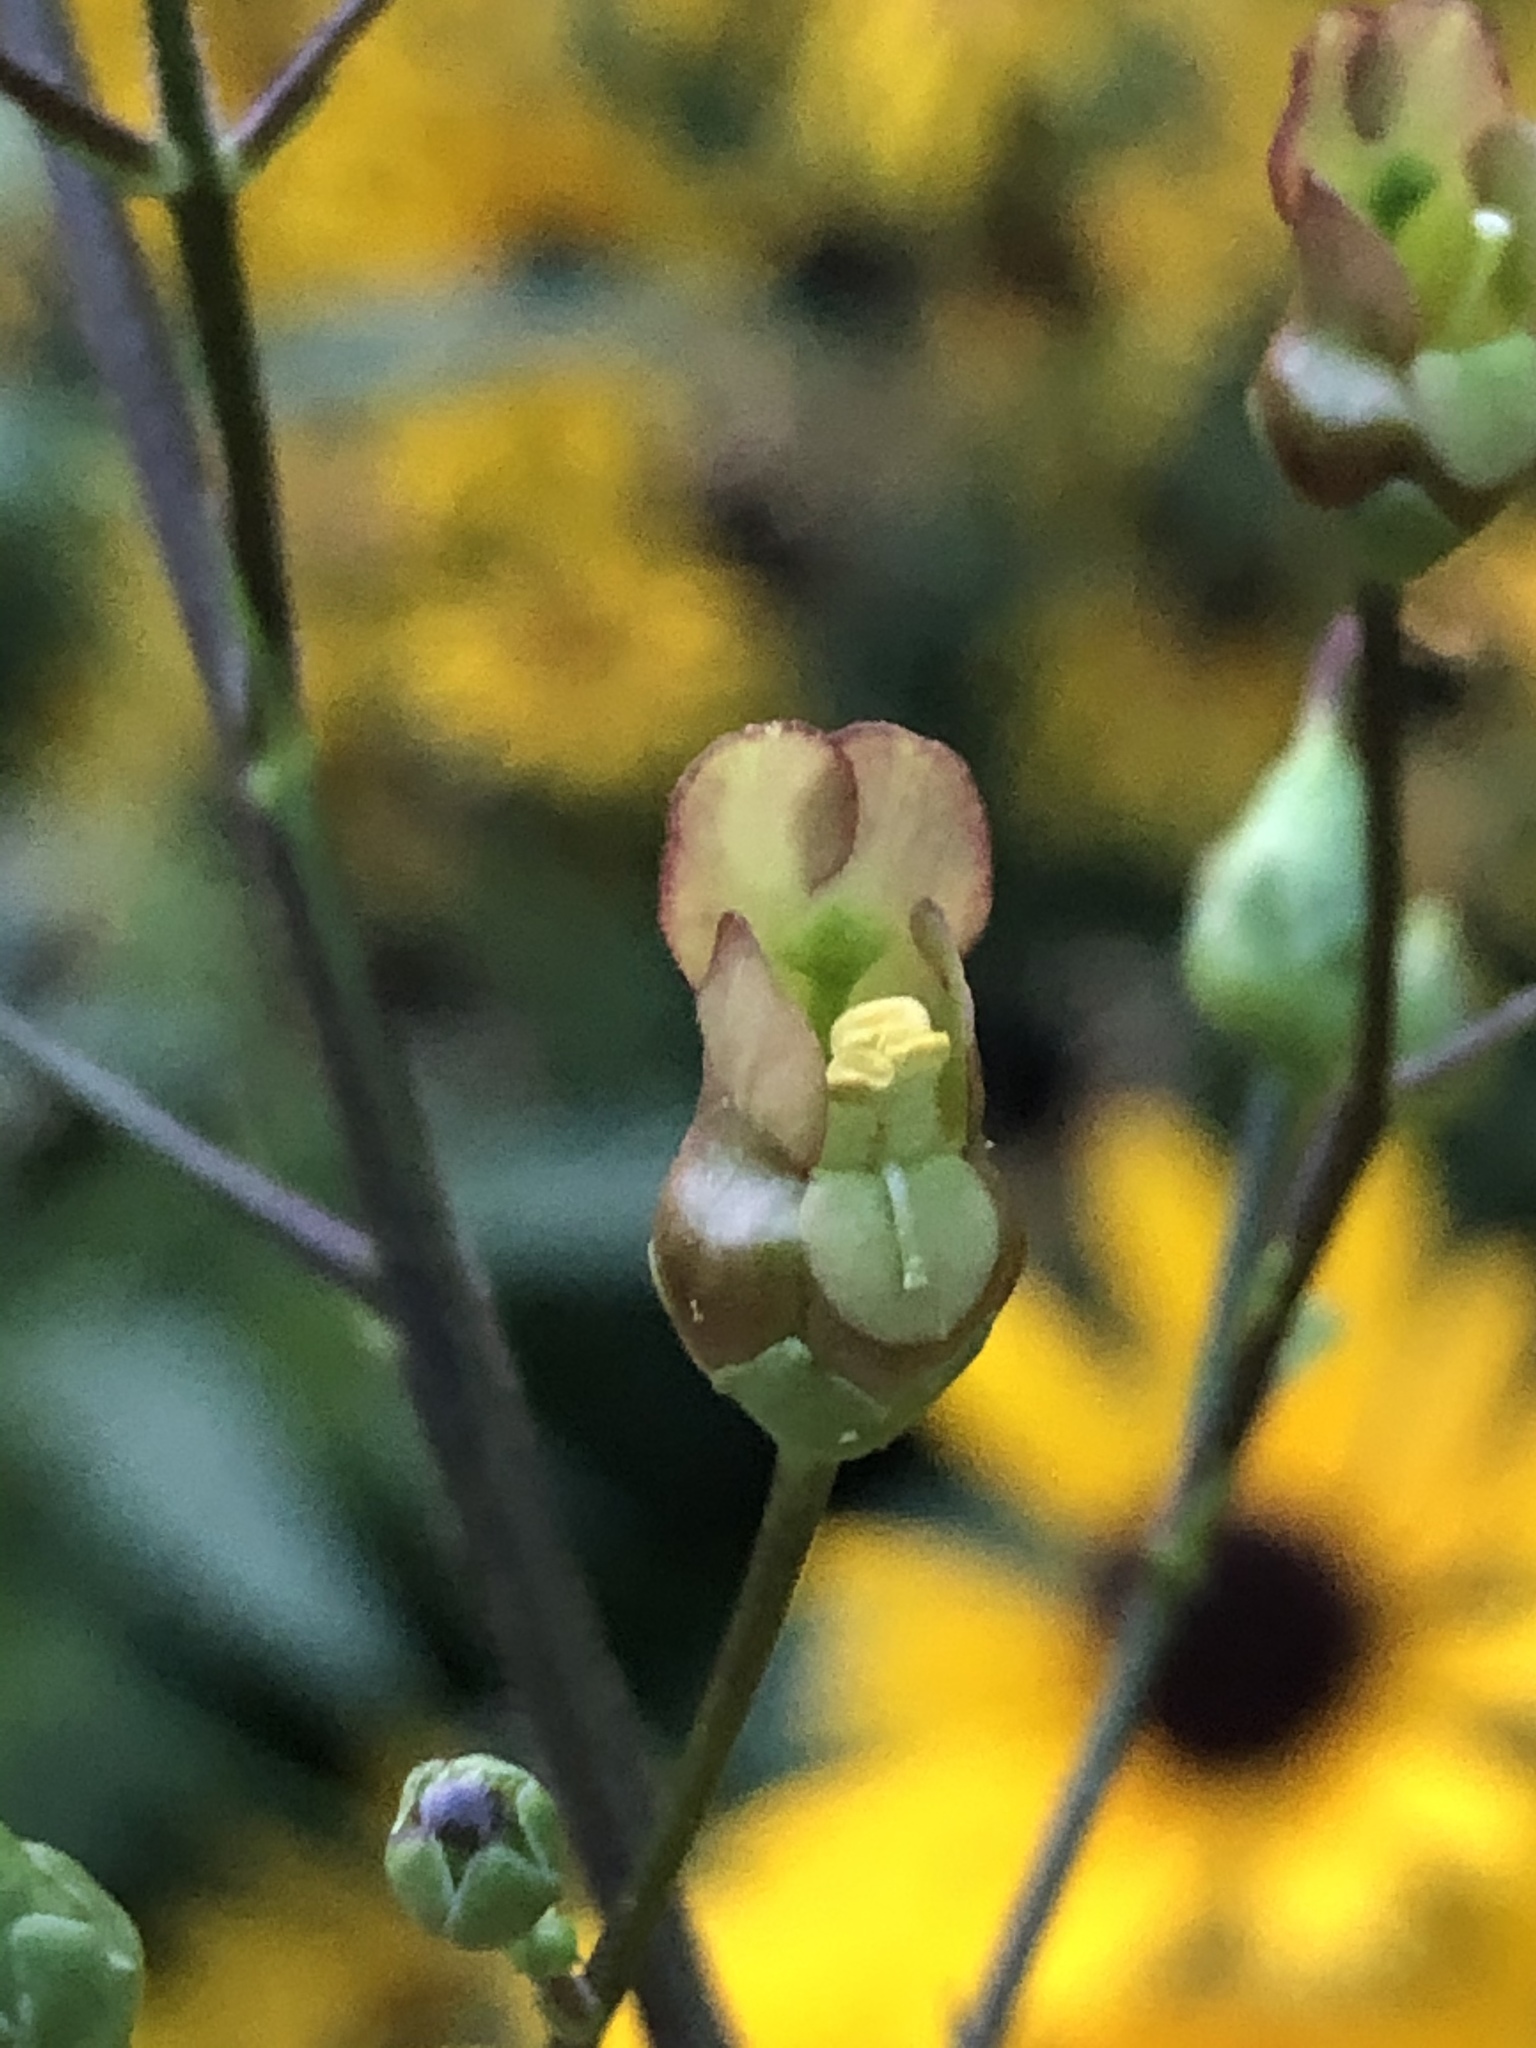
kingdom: Plantae
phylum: Tracheophyta
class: Magnoliopsida
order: Lamiales
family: Scrophulariaceae
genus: Scrophularia
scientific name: Scrophularia lanceolata
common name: American figwort
